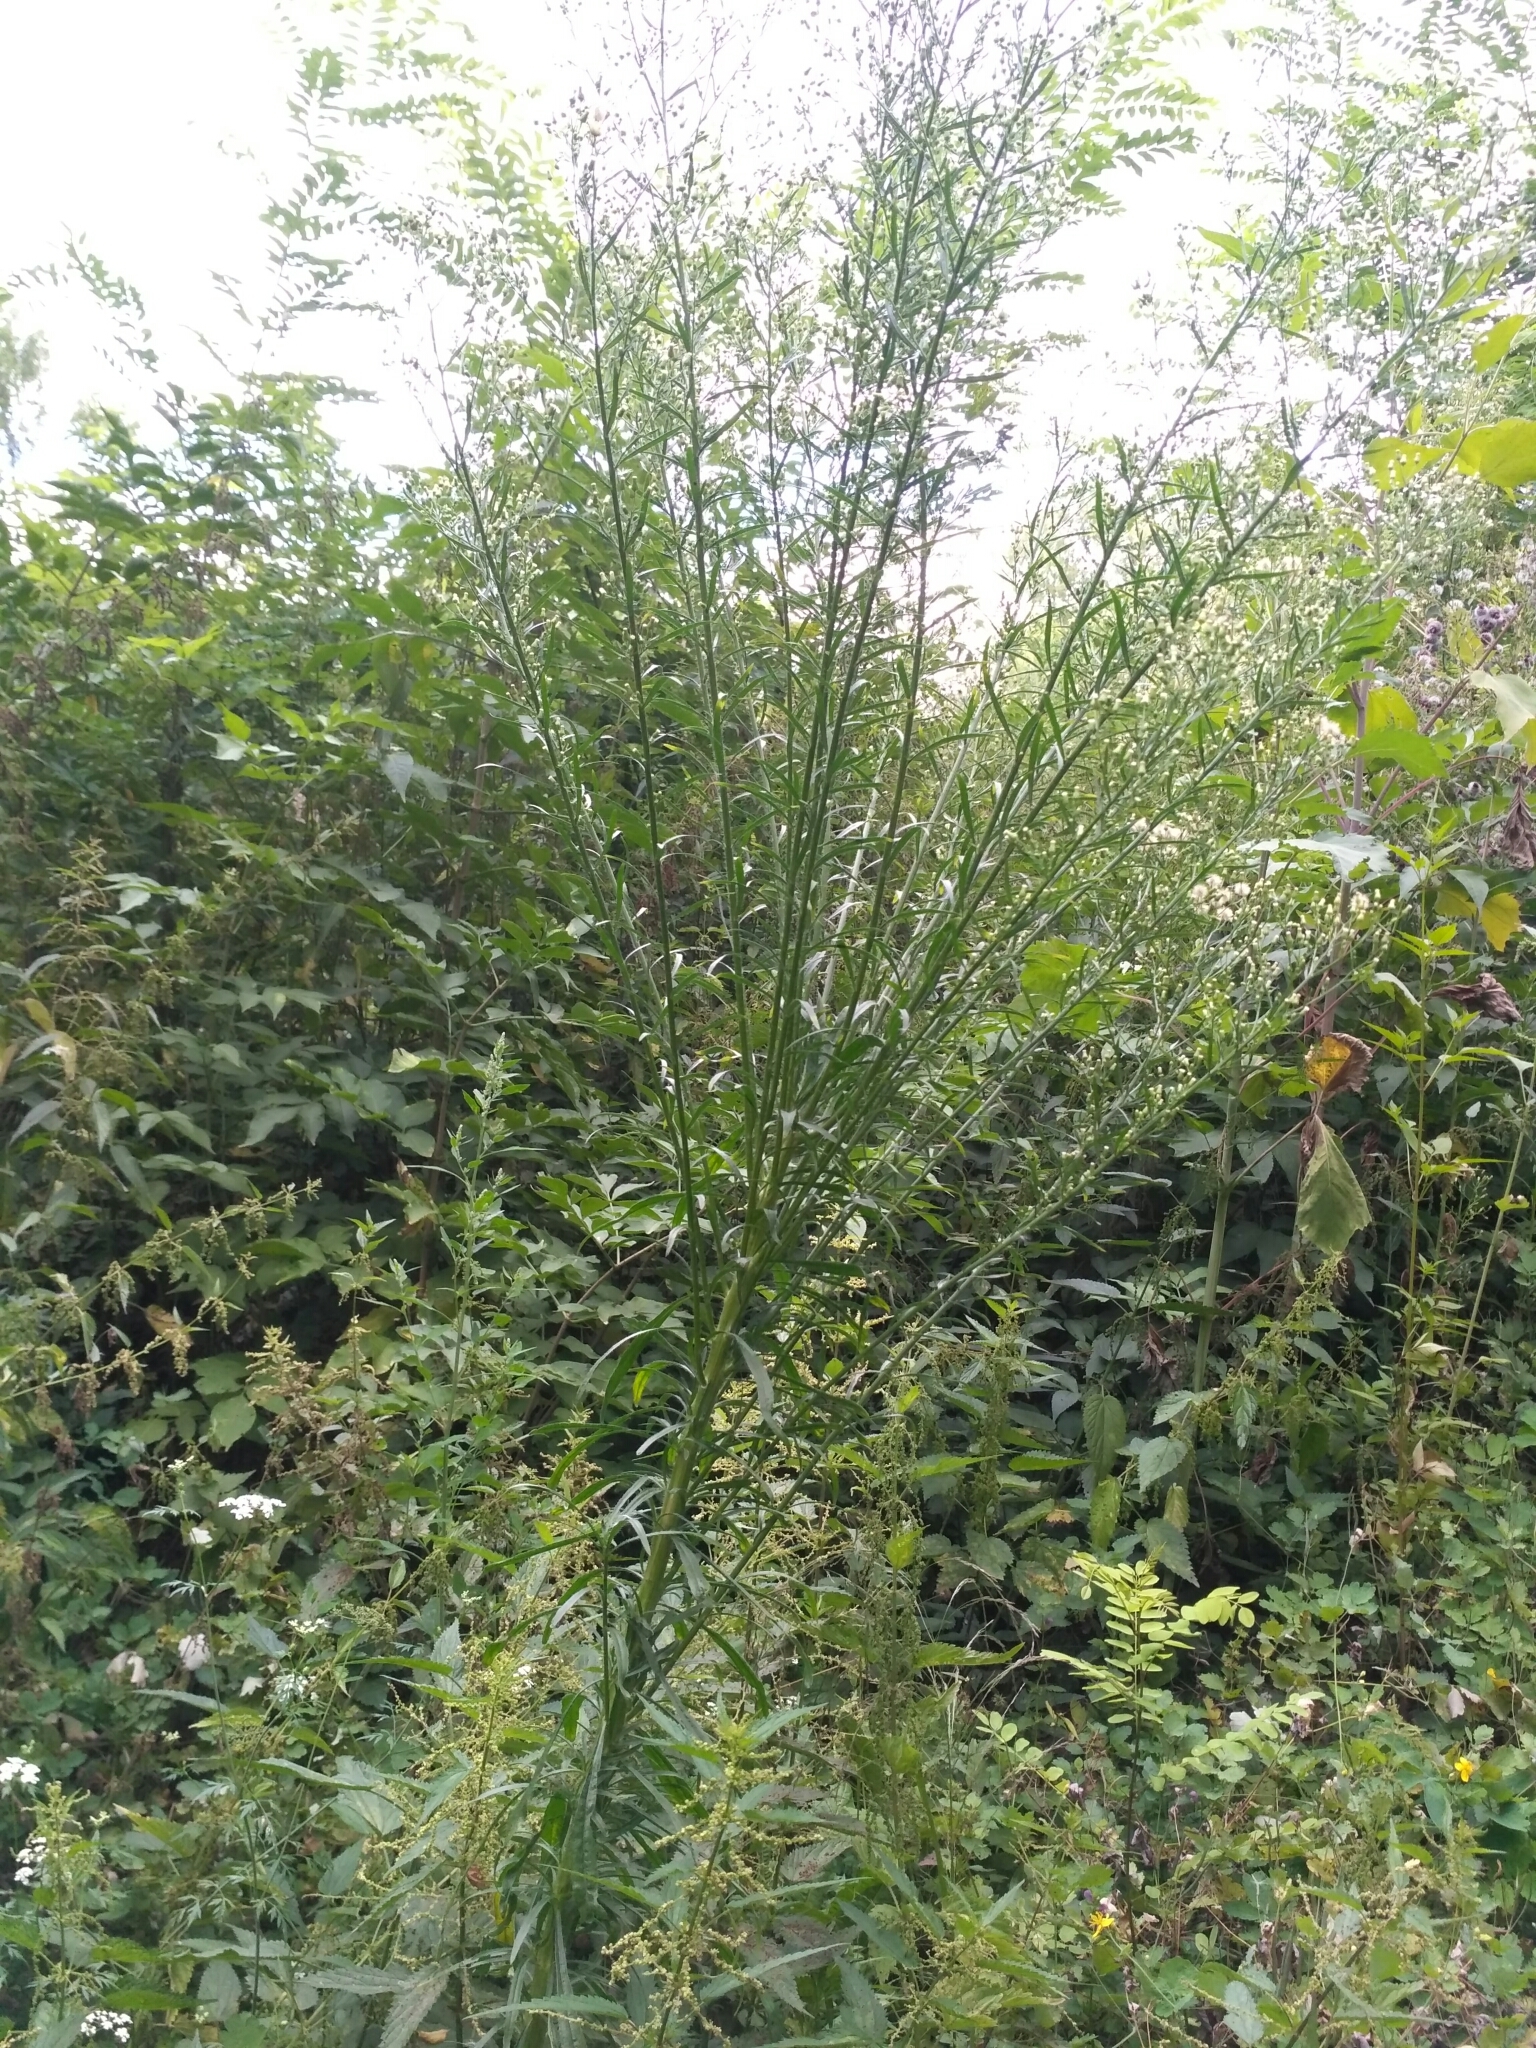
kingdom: Plantae
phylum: Tracheophyta
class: Magnoliopsida
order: Asterales
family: Asteraceae
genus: Erigeron
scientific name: Erigeron canadensis
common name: Canadian fleabane
